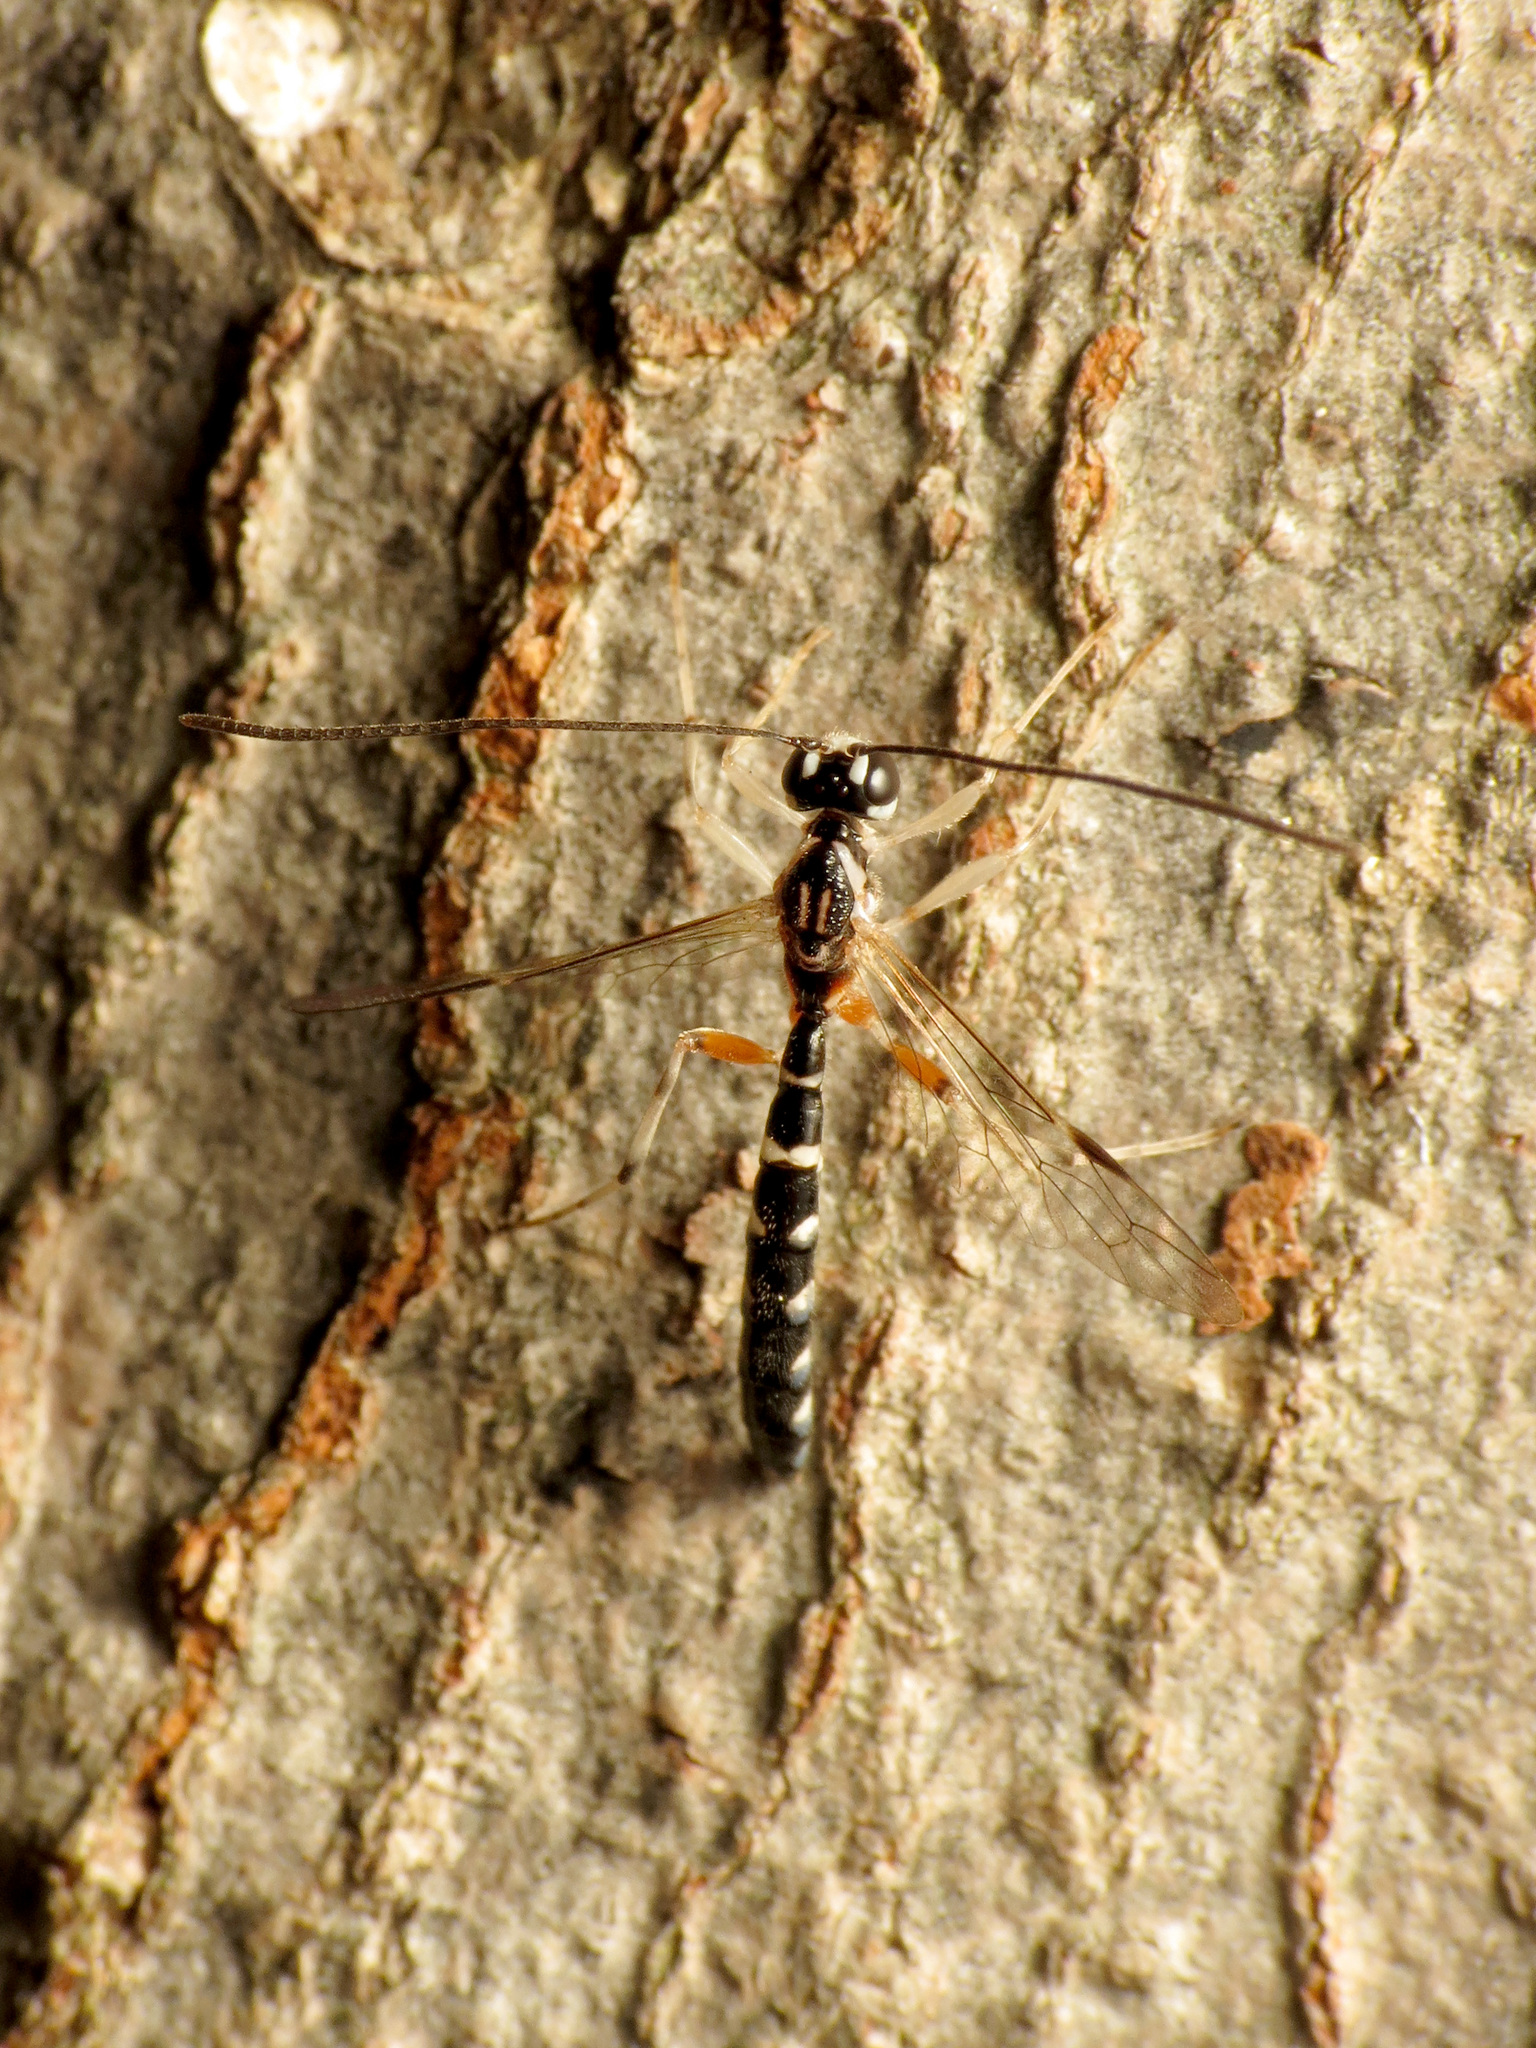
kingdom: Animalia
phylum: Arthropoda
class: Insecta
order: Hymenoptera
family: Ichneumonidae
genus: Rhyssella
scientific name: Rhyssella humida
